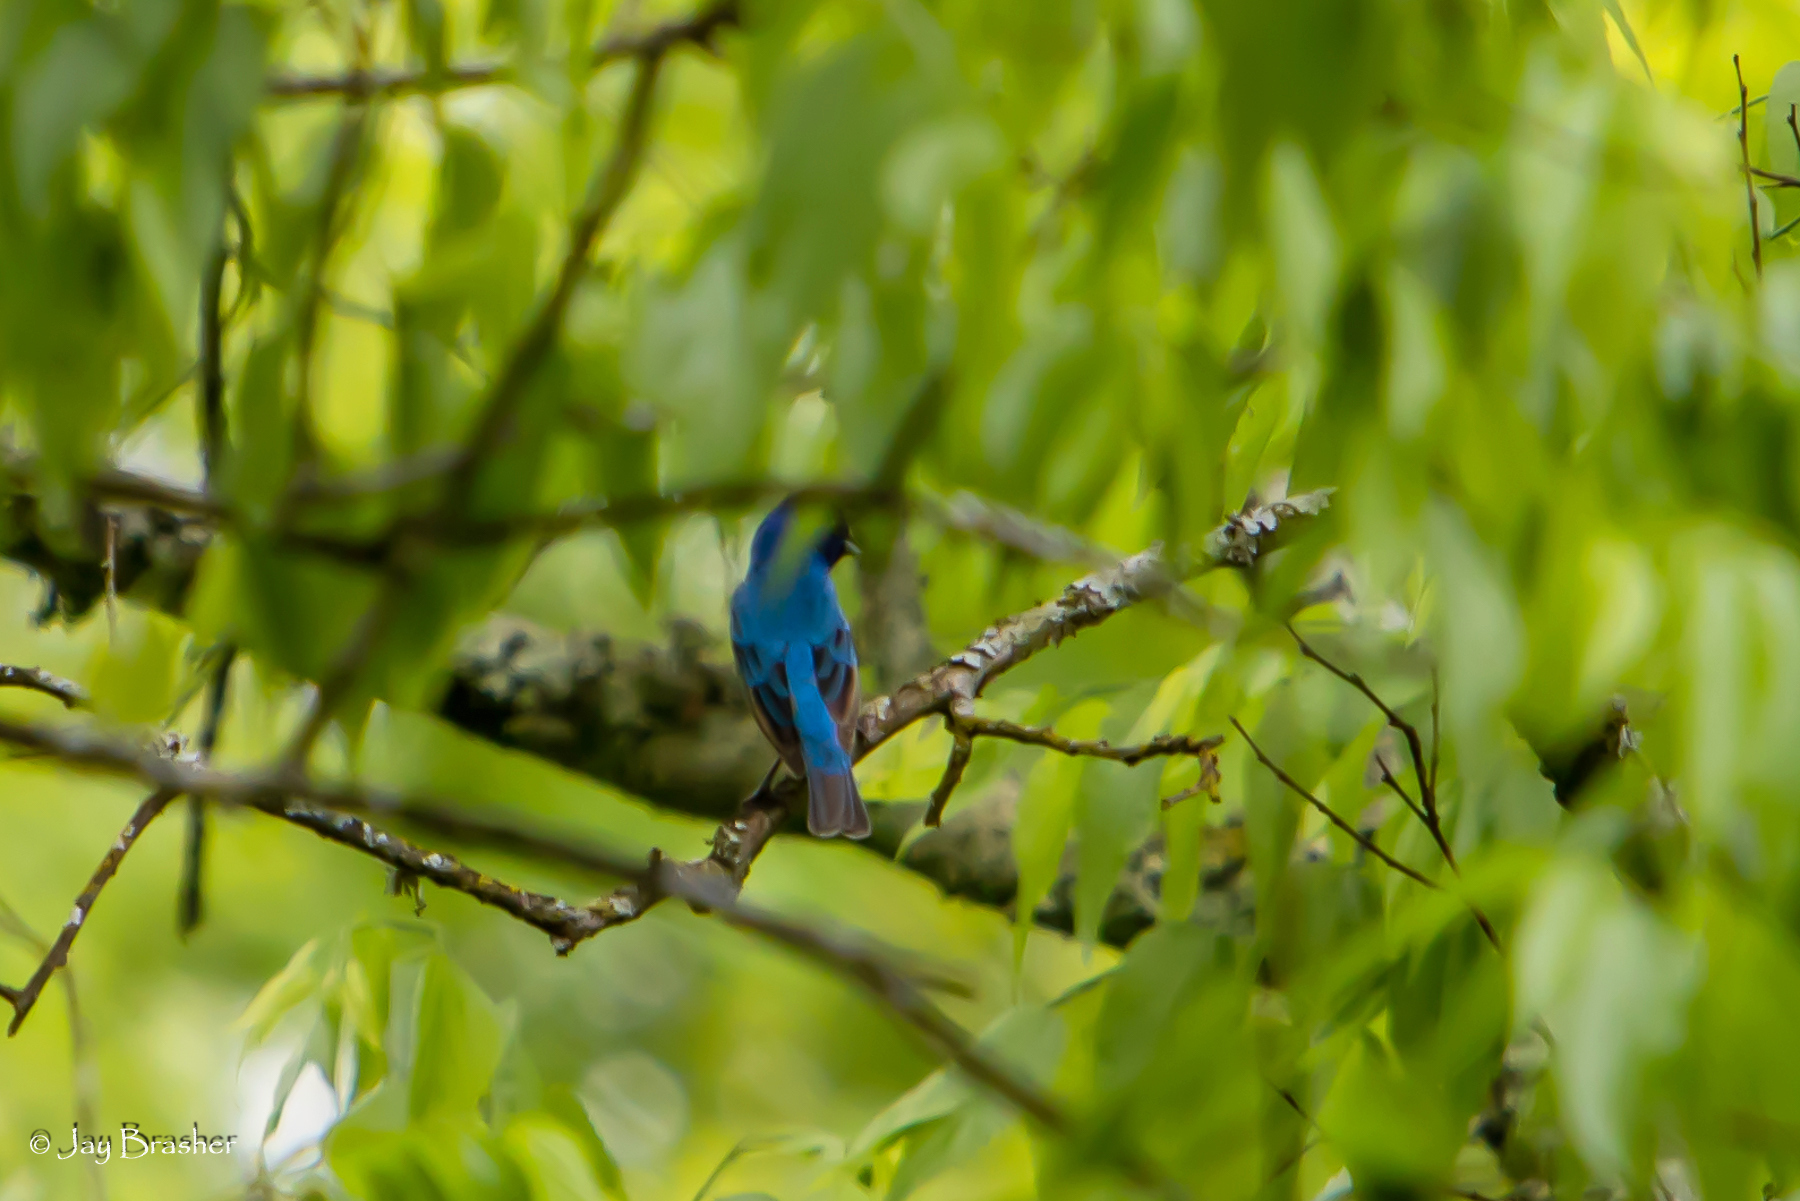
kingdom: Animalia
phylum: Chordata
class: Aves
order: Passeriformes
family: Cardinalidae
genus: Passerina
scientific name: Passerina cyanea
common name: Indigo bunting
